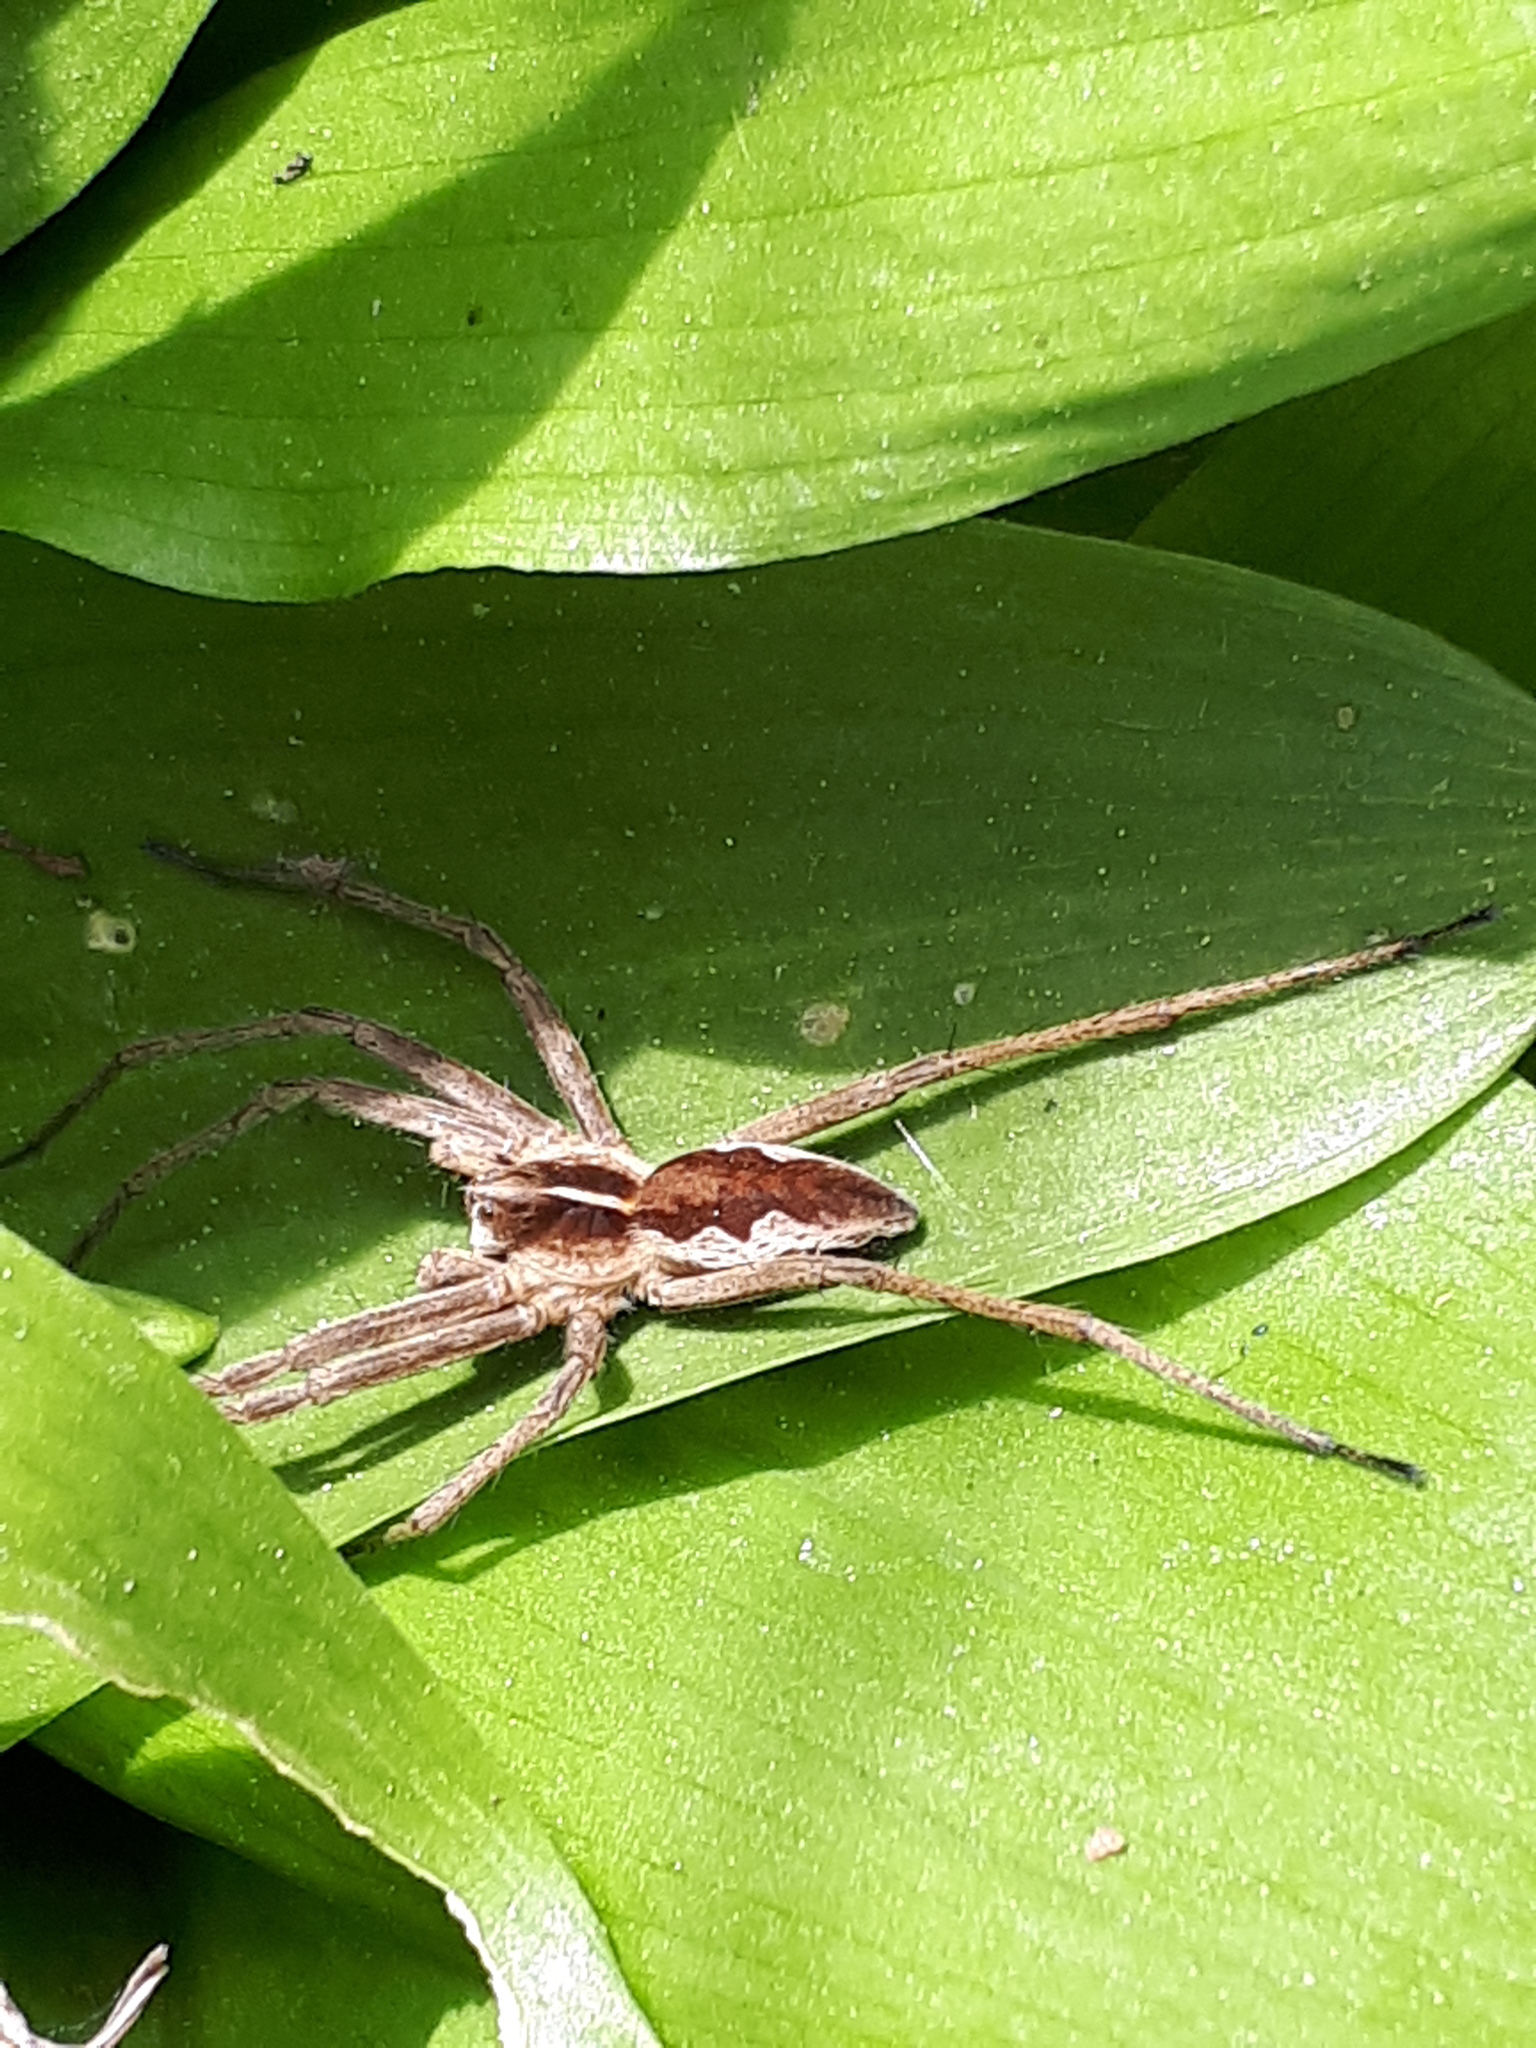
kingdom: Animalia
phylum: Arthropoda
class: Arachnida
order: Araneae
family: Pisauridae
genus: Pisaura
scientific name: Pisaura mirabilis
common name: Tent spider
